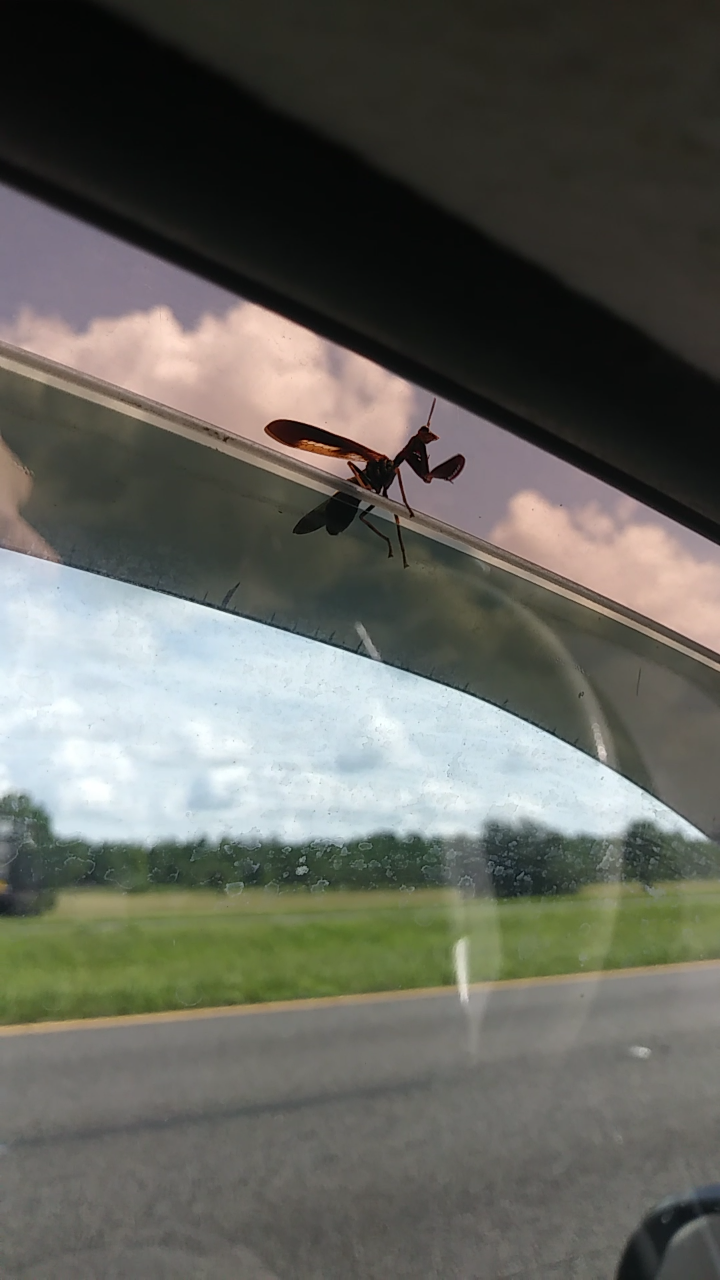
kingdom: Animalia
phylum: Arthropoda
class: Insecta
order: Neuroptera
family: Mantispidae
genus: Climaciella
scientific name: Climaciella brunnea
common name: Brown wasp mantidfly
